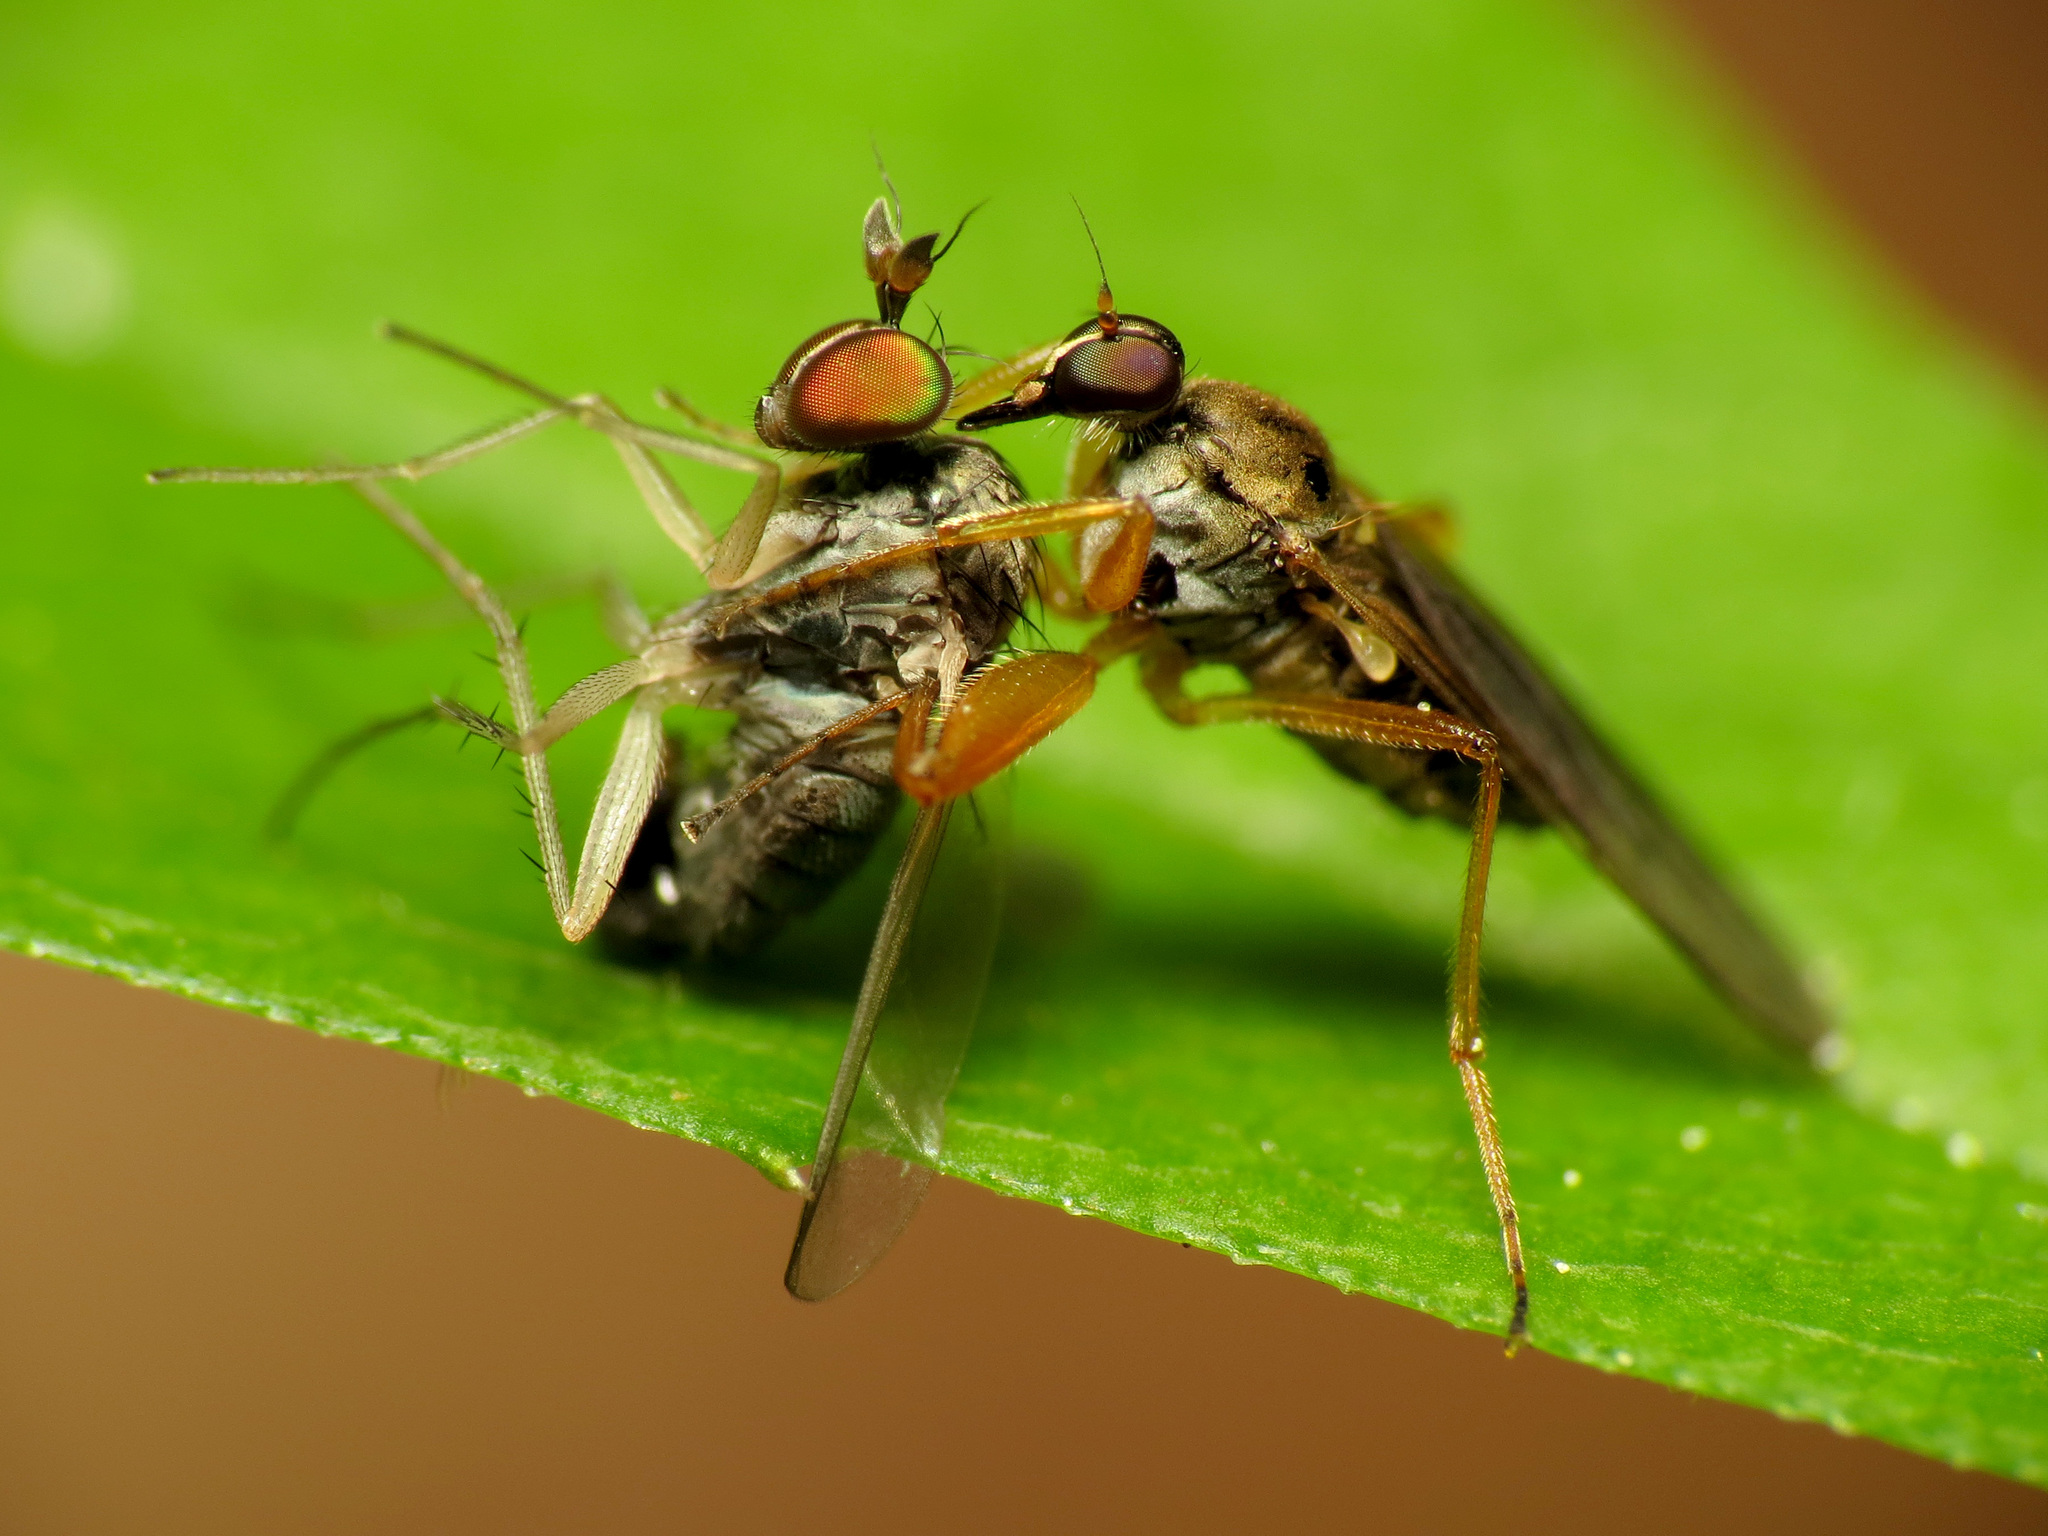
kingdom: Animalia
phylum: Arthropoda
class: Insecta
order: Diptera
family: Dolichopodidae
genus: Gymnopternus
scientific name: Gymnopternus opacus
